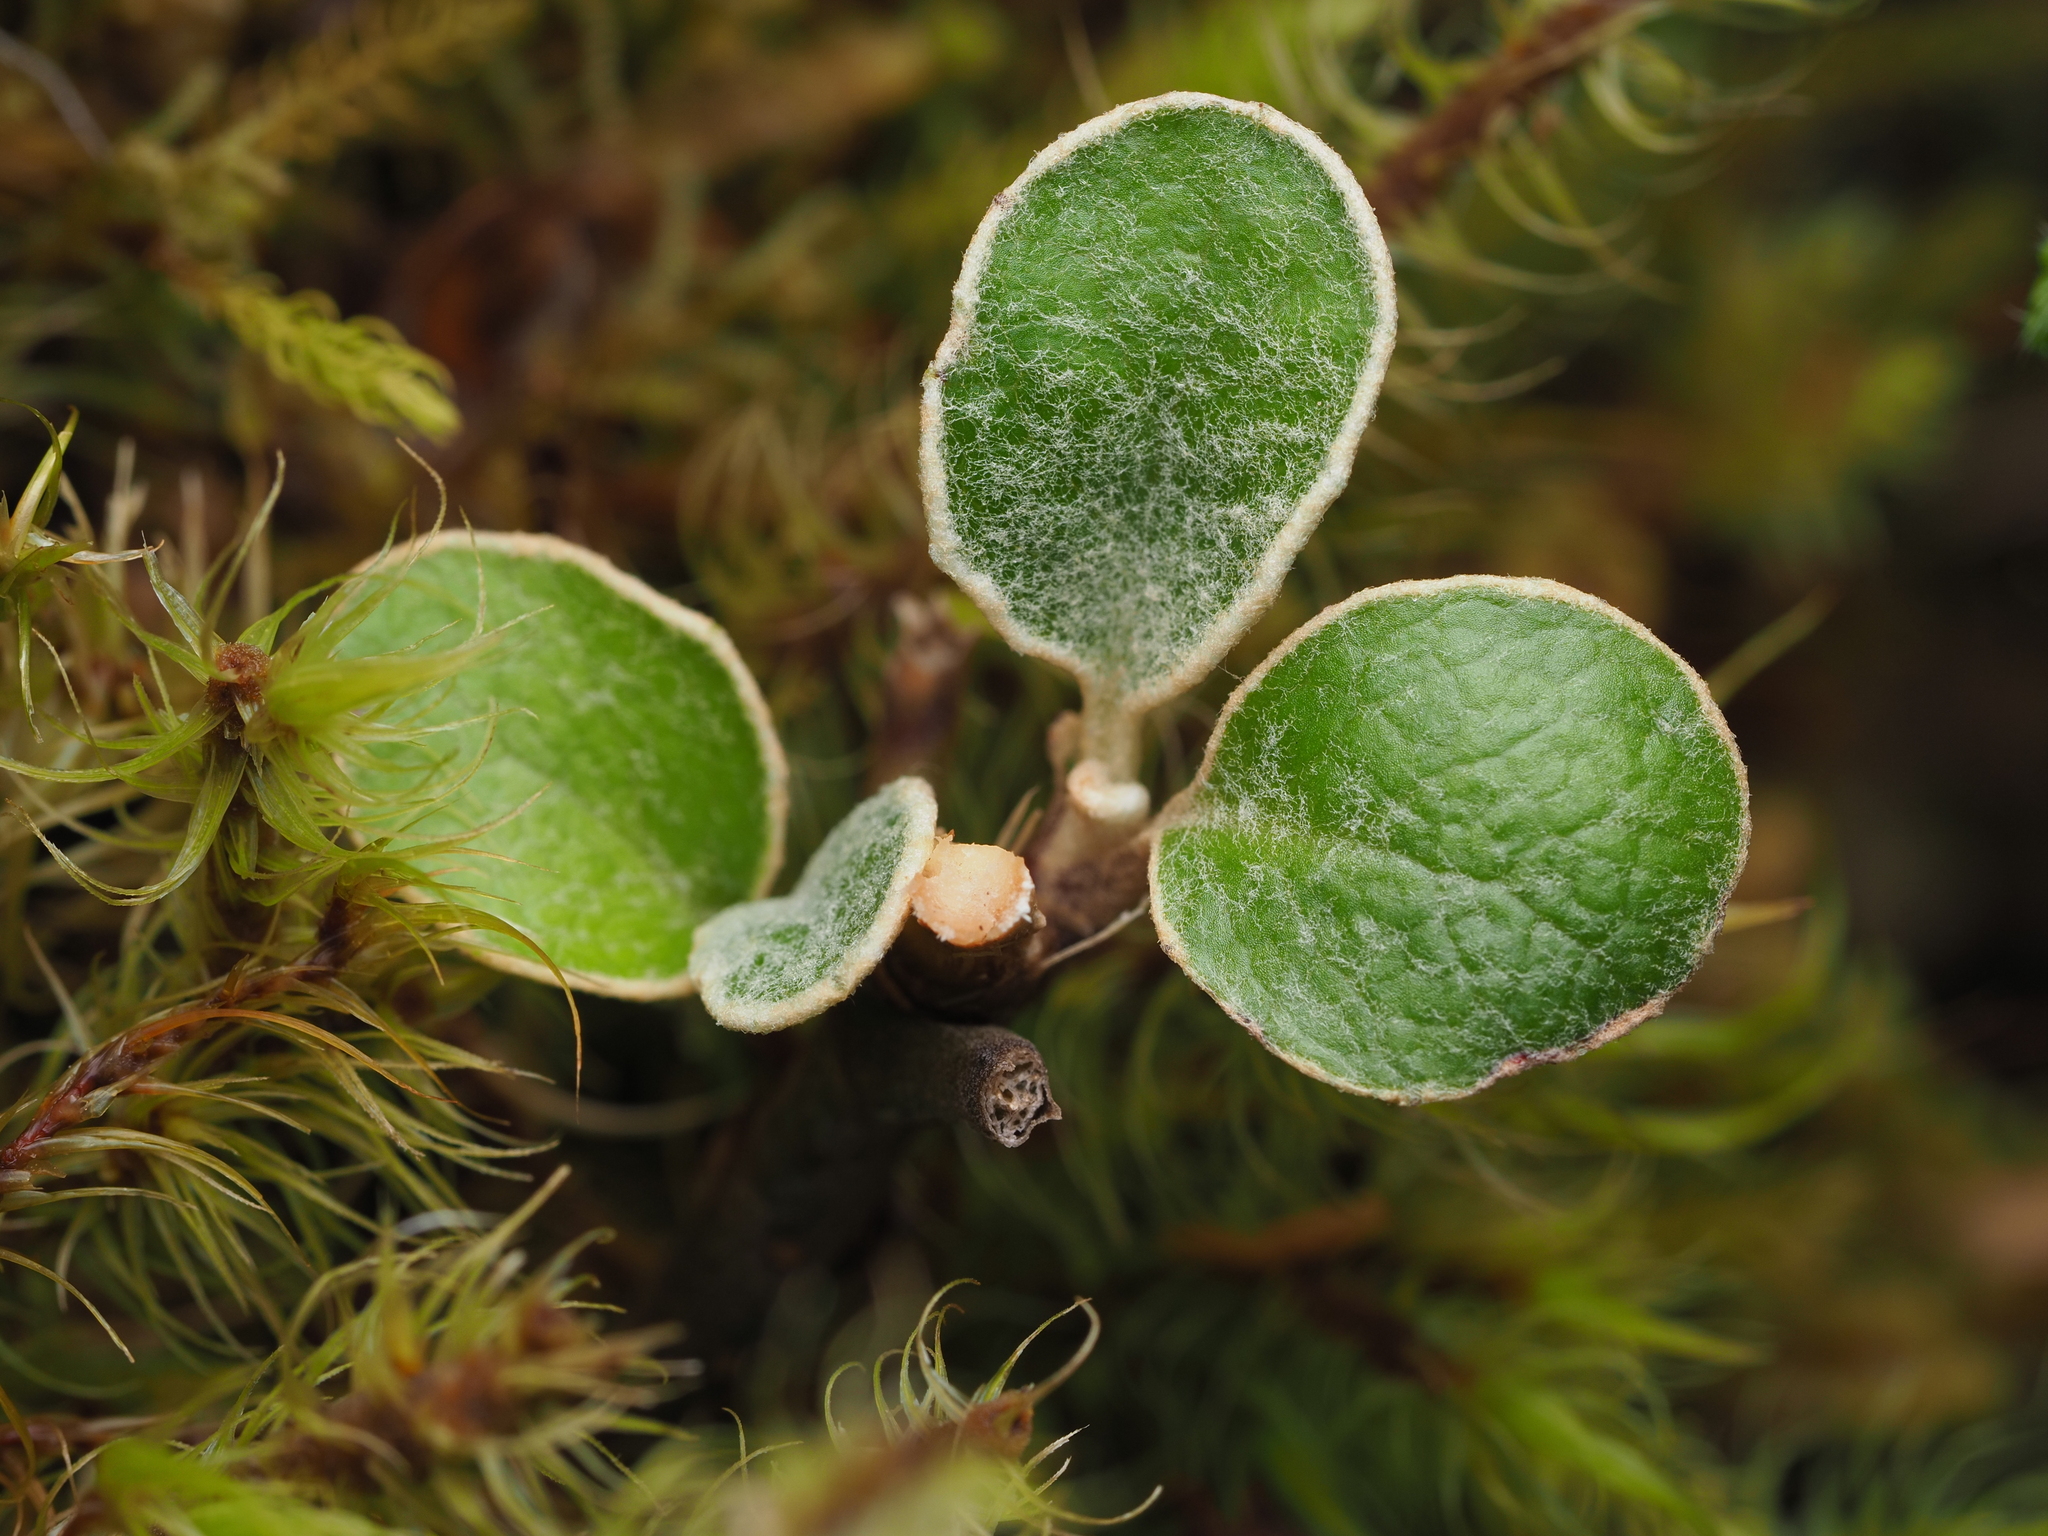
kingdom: Plantae
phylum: Tracheophyta
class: Magnoliopsida
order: Asterales
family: Asteraceae
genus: Brachyglottis
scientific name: Brachyglottis bidwillii
